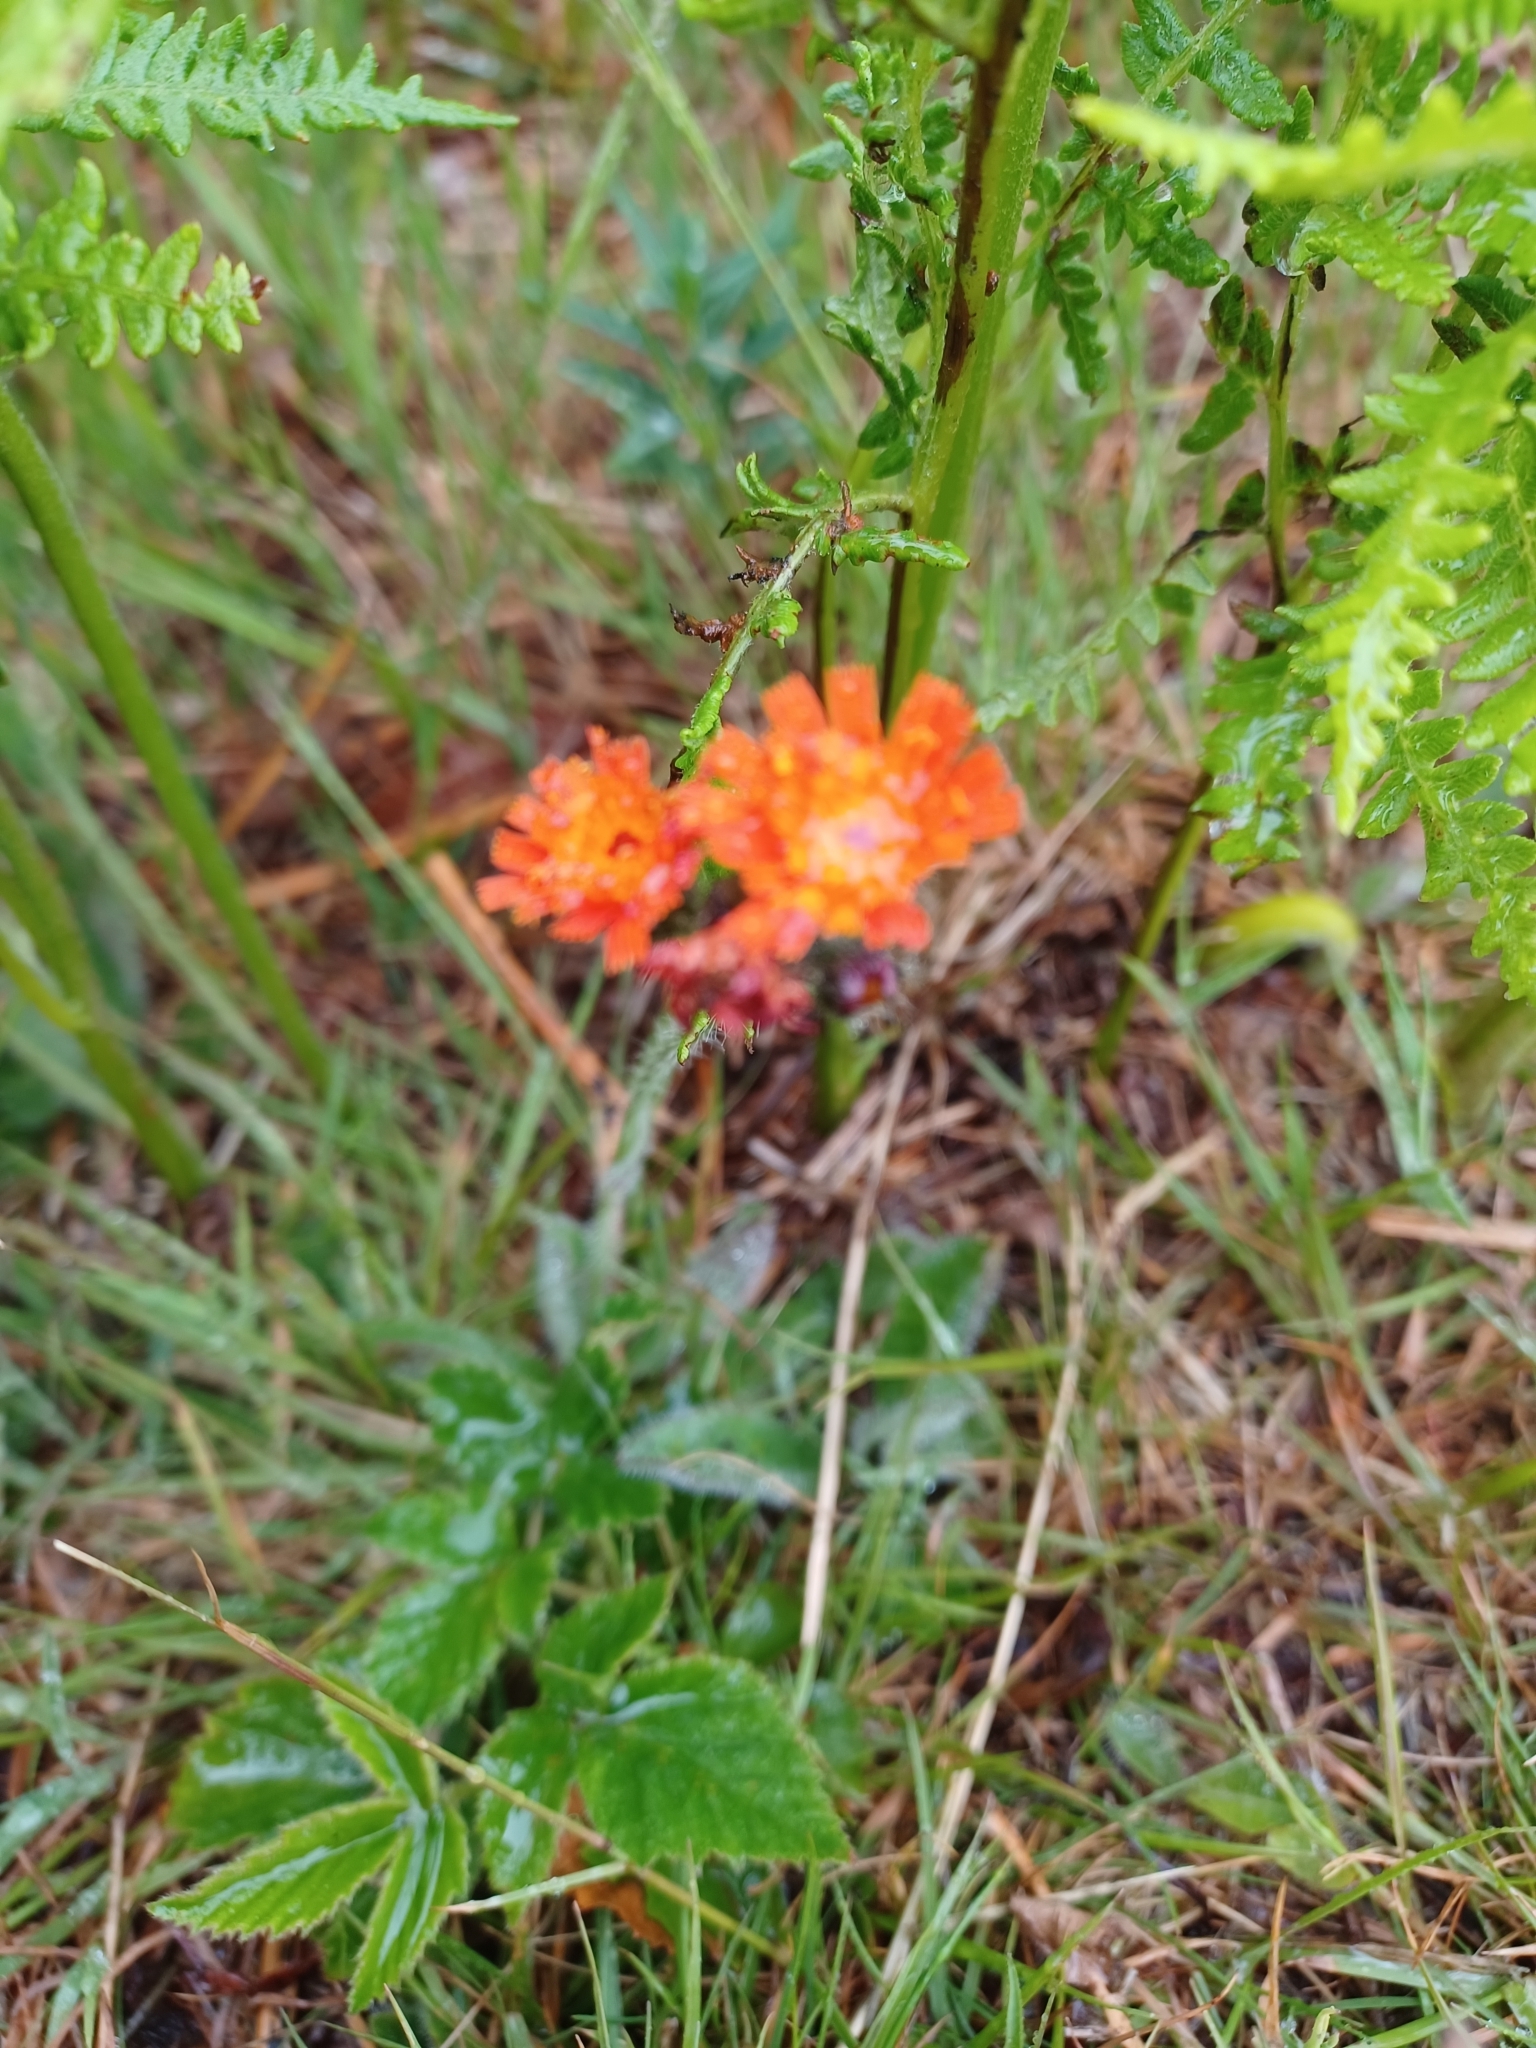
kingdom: Plantae
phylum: Tracheophyta
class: Magnoliopsida
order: Asterales
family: Asteraceae
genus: Pilosella
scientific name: Pilosella aurantiaca
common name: Fox-and-cubs
